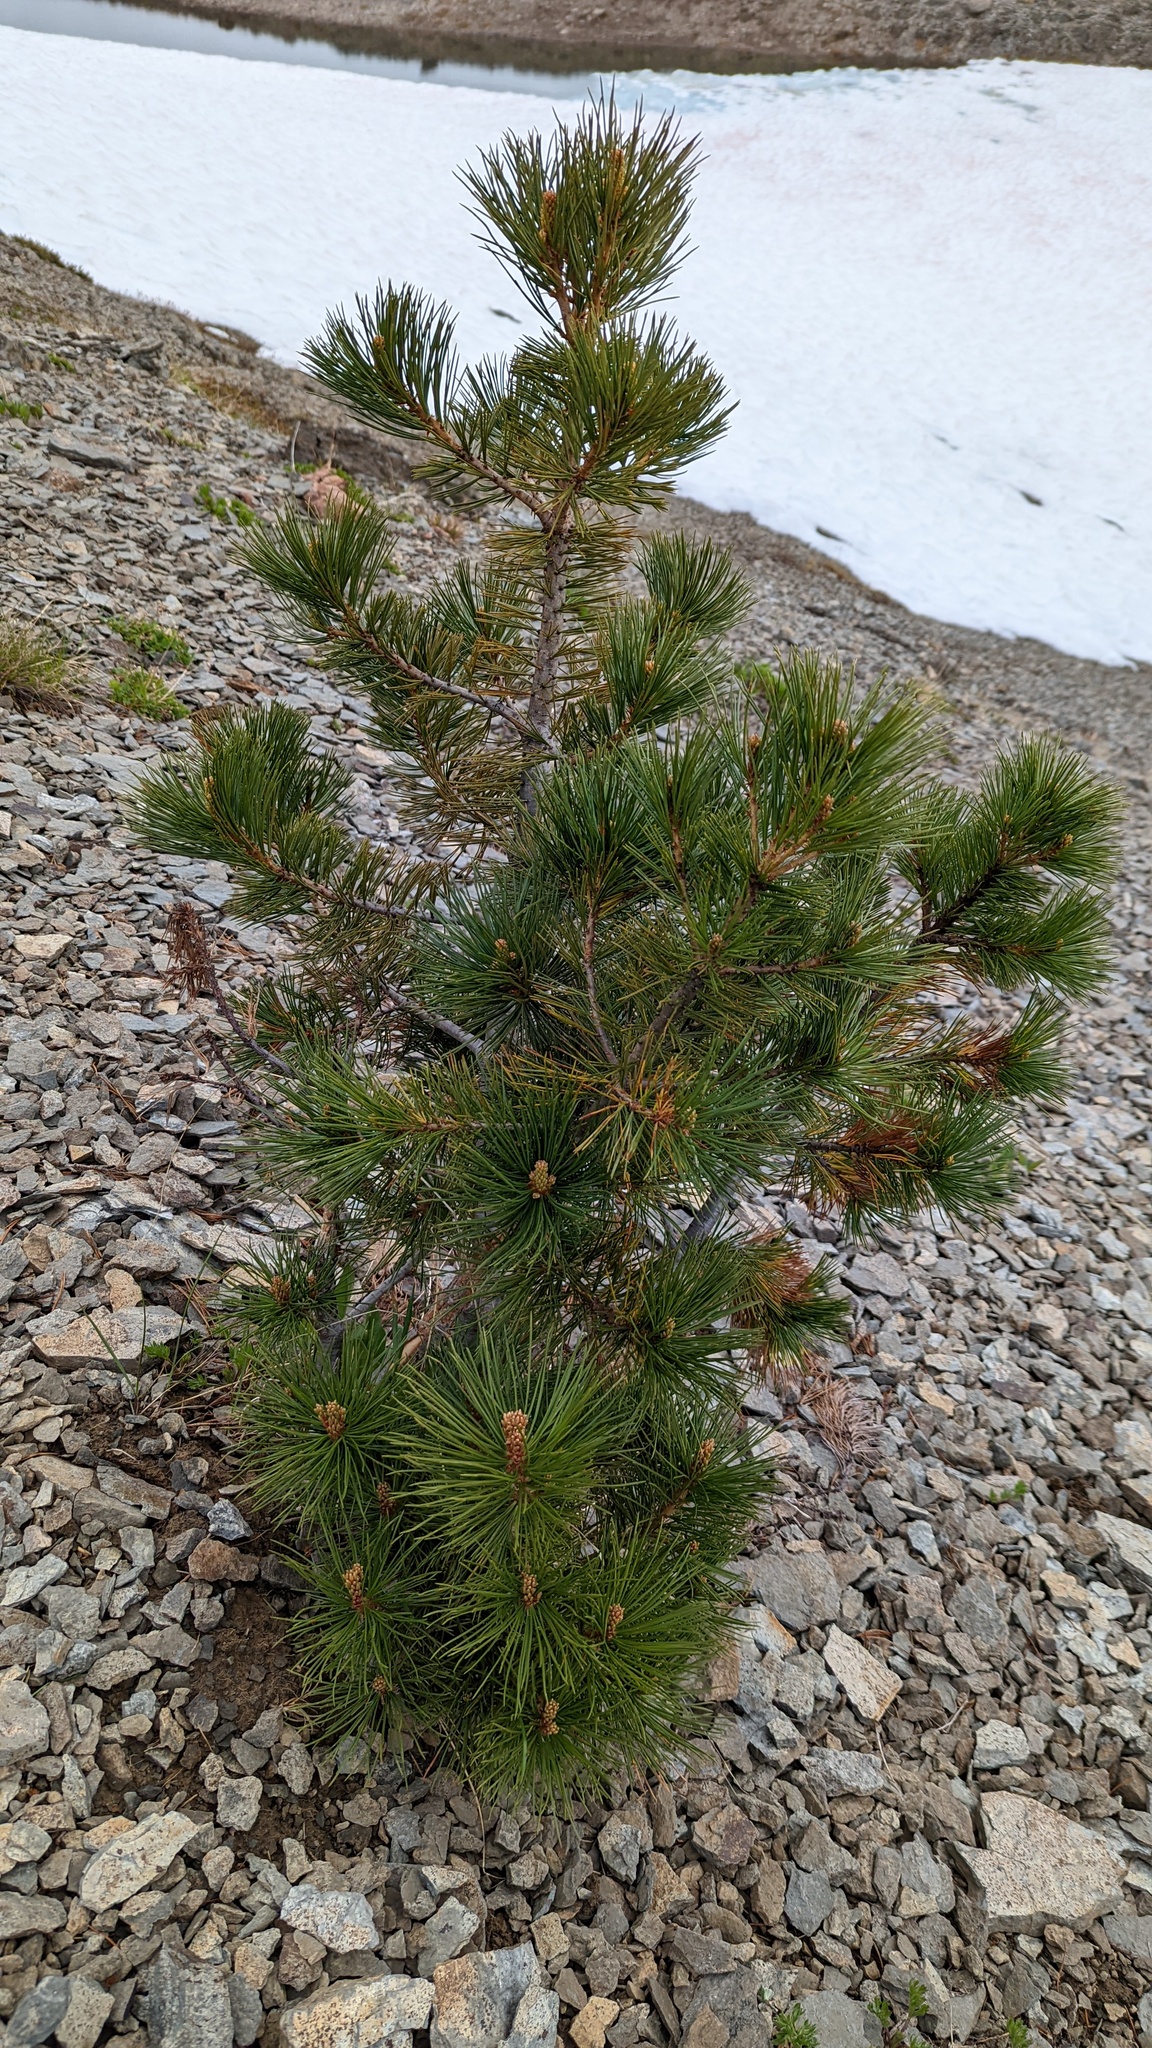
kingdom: Plantae
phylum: Tracheophyta
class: Pinopsida
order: Pinales
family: Pinaceae
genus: Pinus
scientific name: Pinus albicaulis
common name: Whitebark pine
